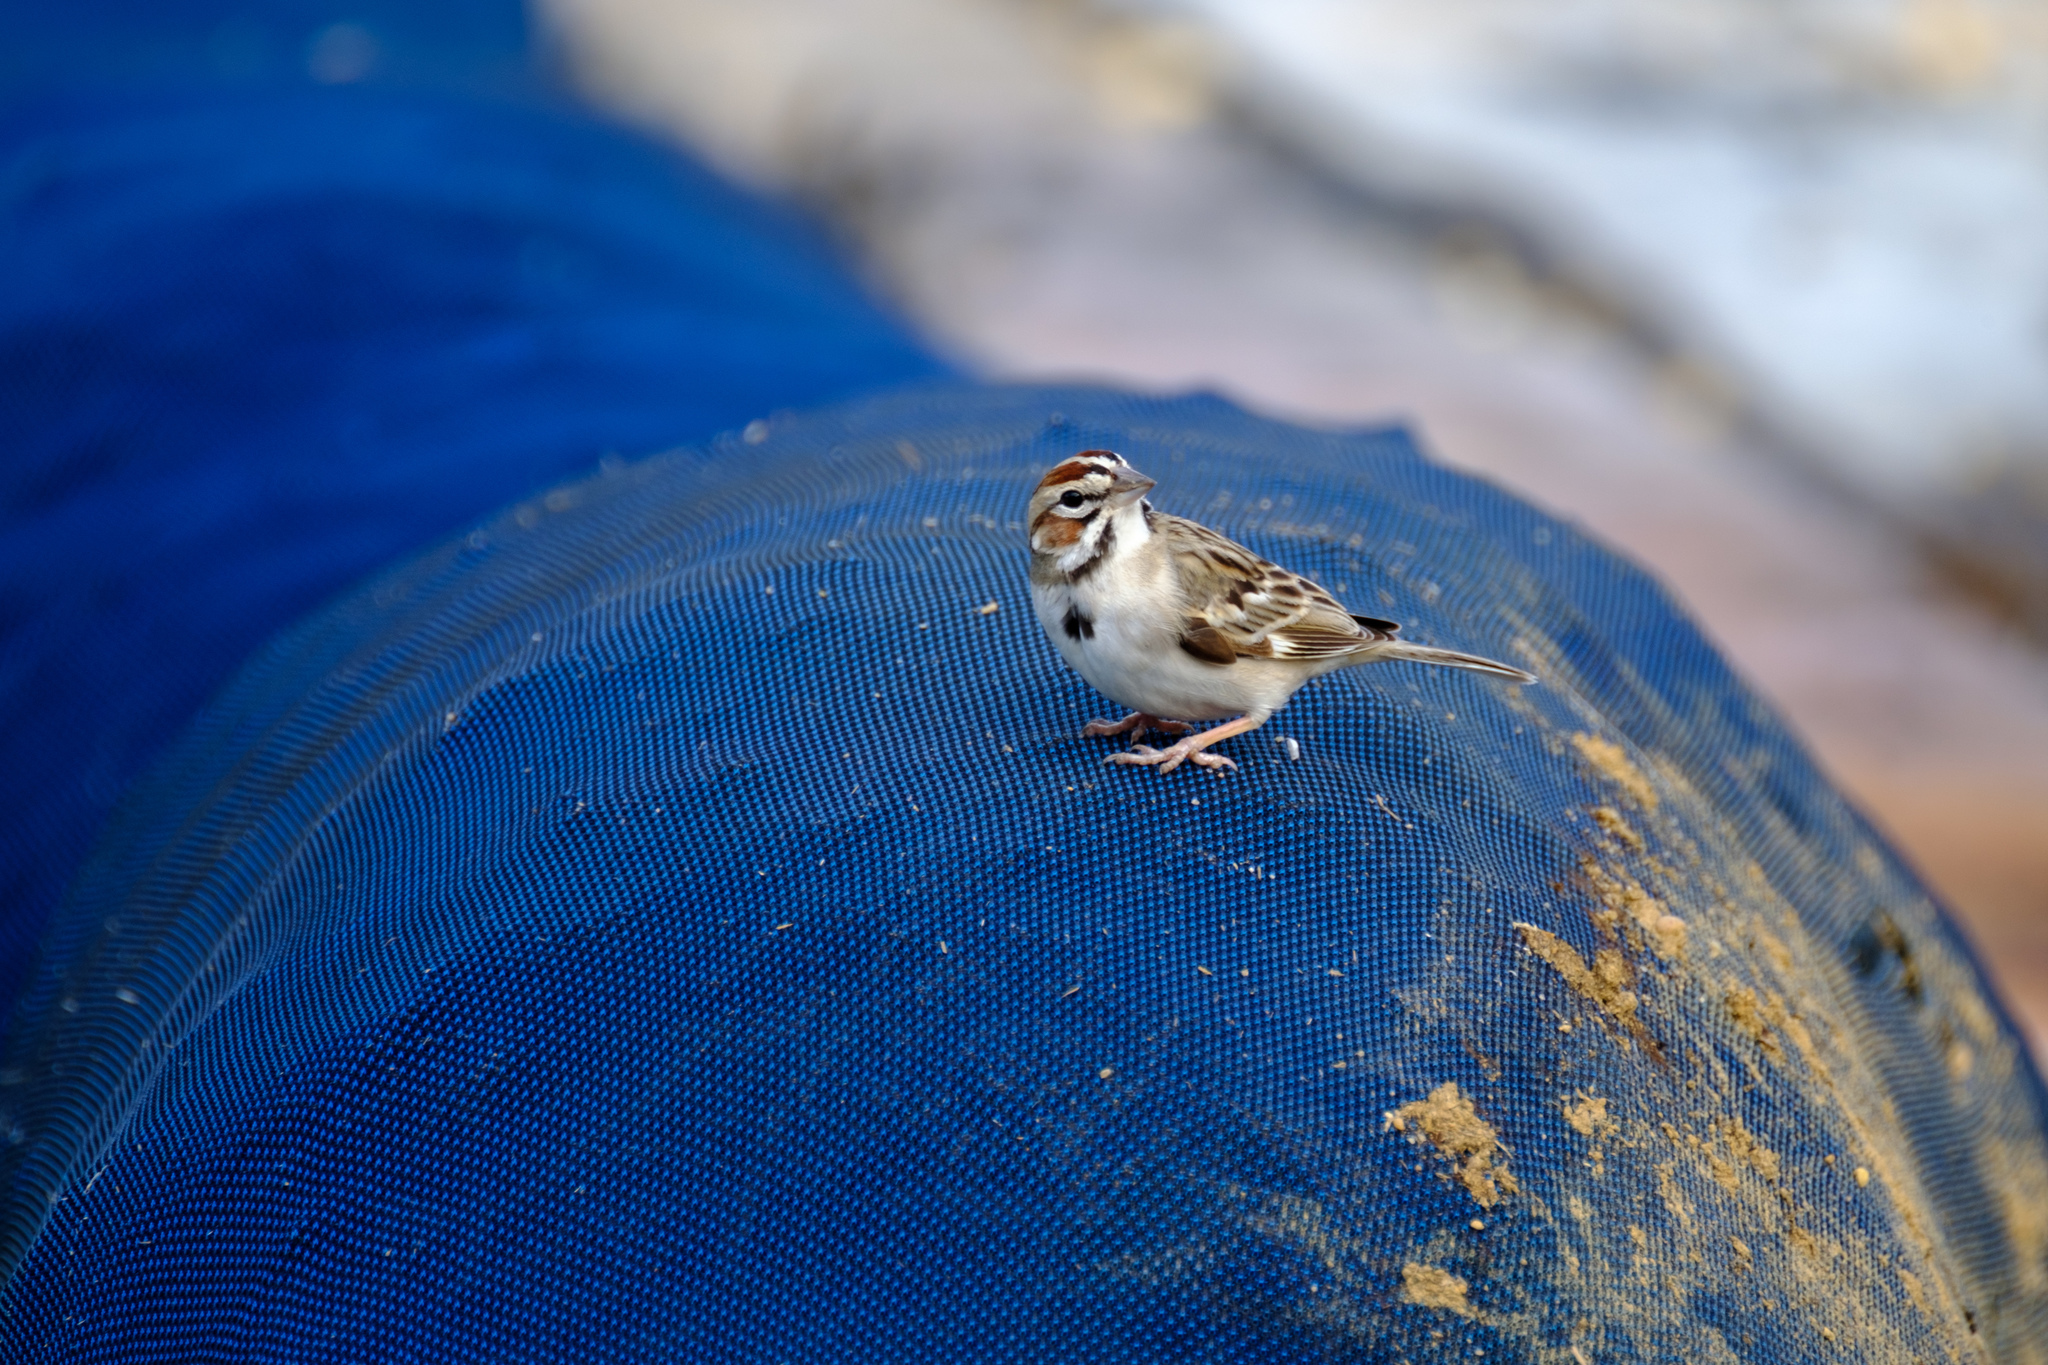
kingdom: Animalia
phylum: Chordata
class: Aves
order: Passeriformes
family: Passerellidae
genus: Chondestes
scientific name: Chondestes grammacus
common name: Lark sparrow
